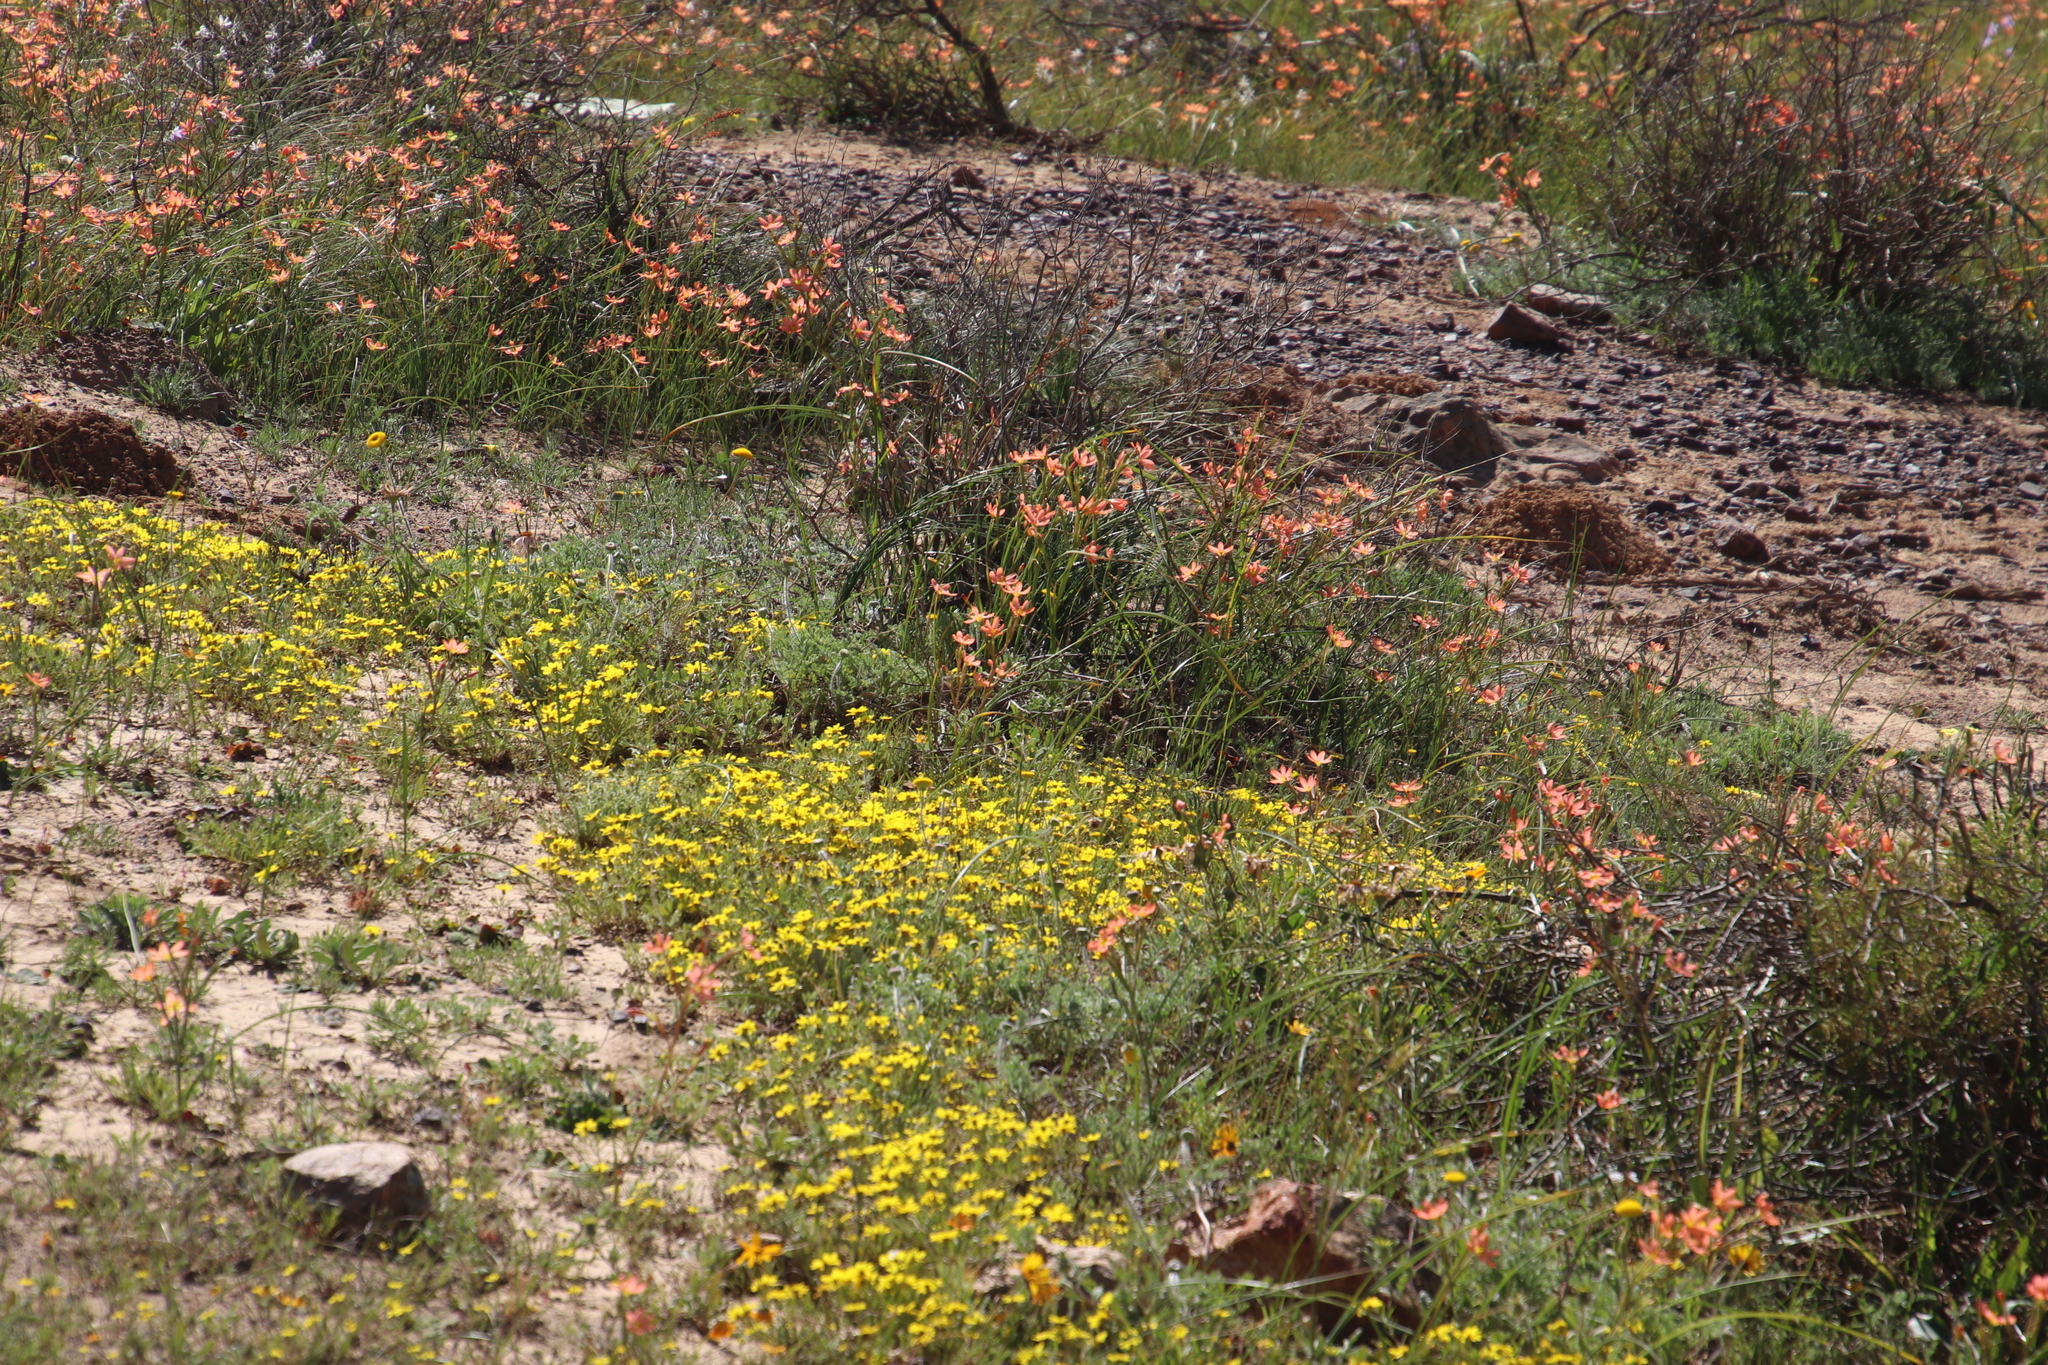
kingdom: Plantae
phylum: Tracheophyta
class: Liliopsida
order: Asparagales
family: Iridaceae
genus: Moraea
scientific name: Moraea miniata
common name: Two-leaf cape-tulip
